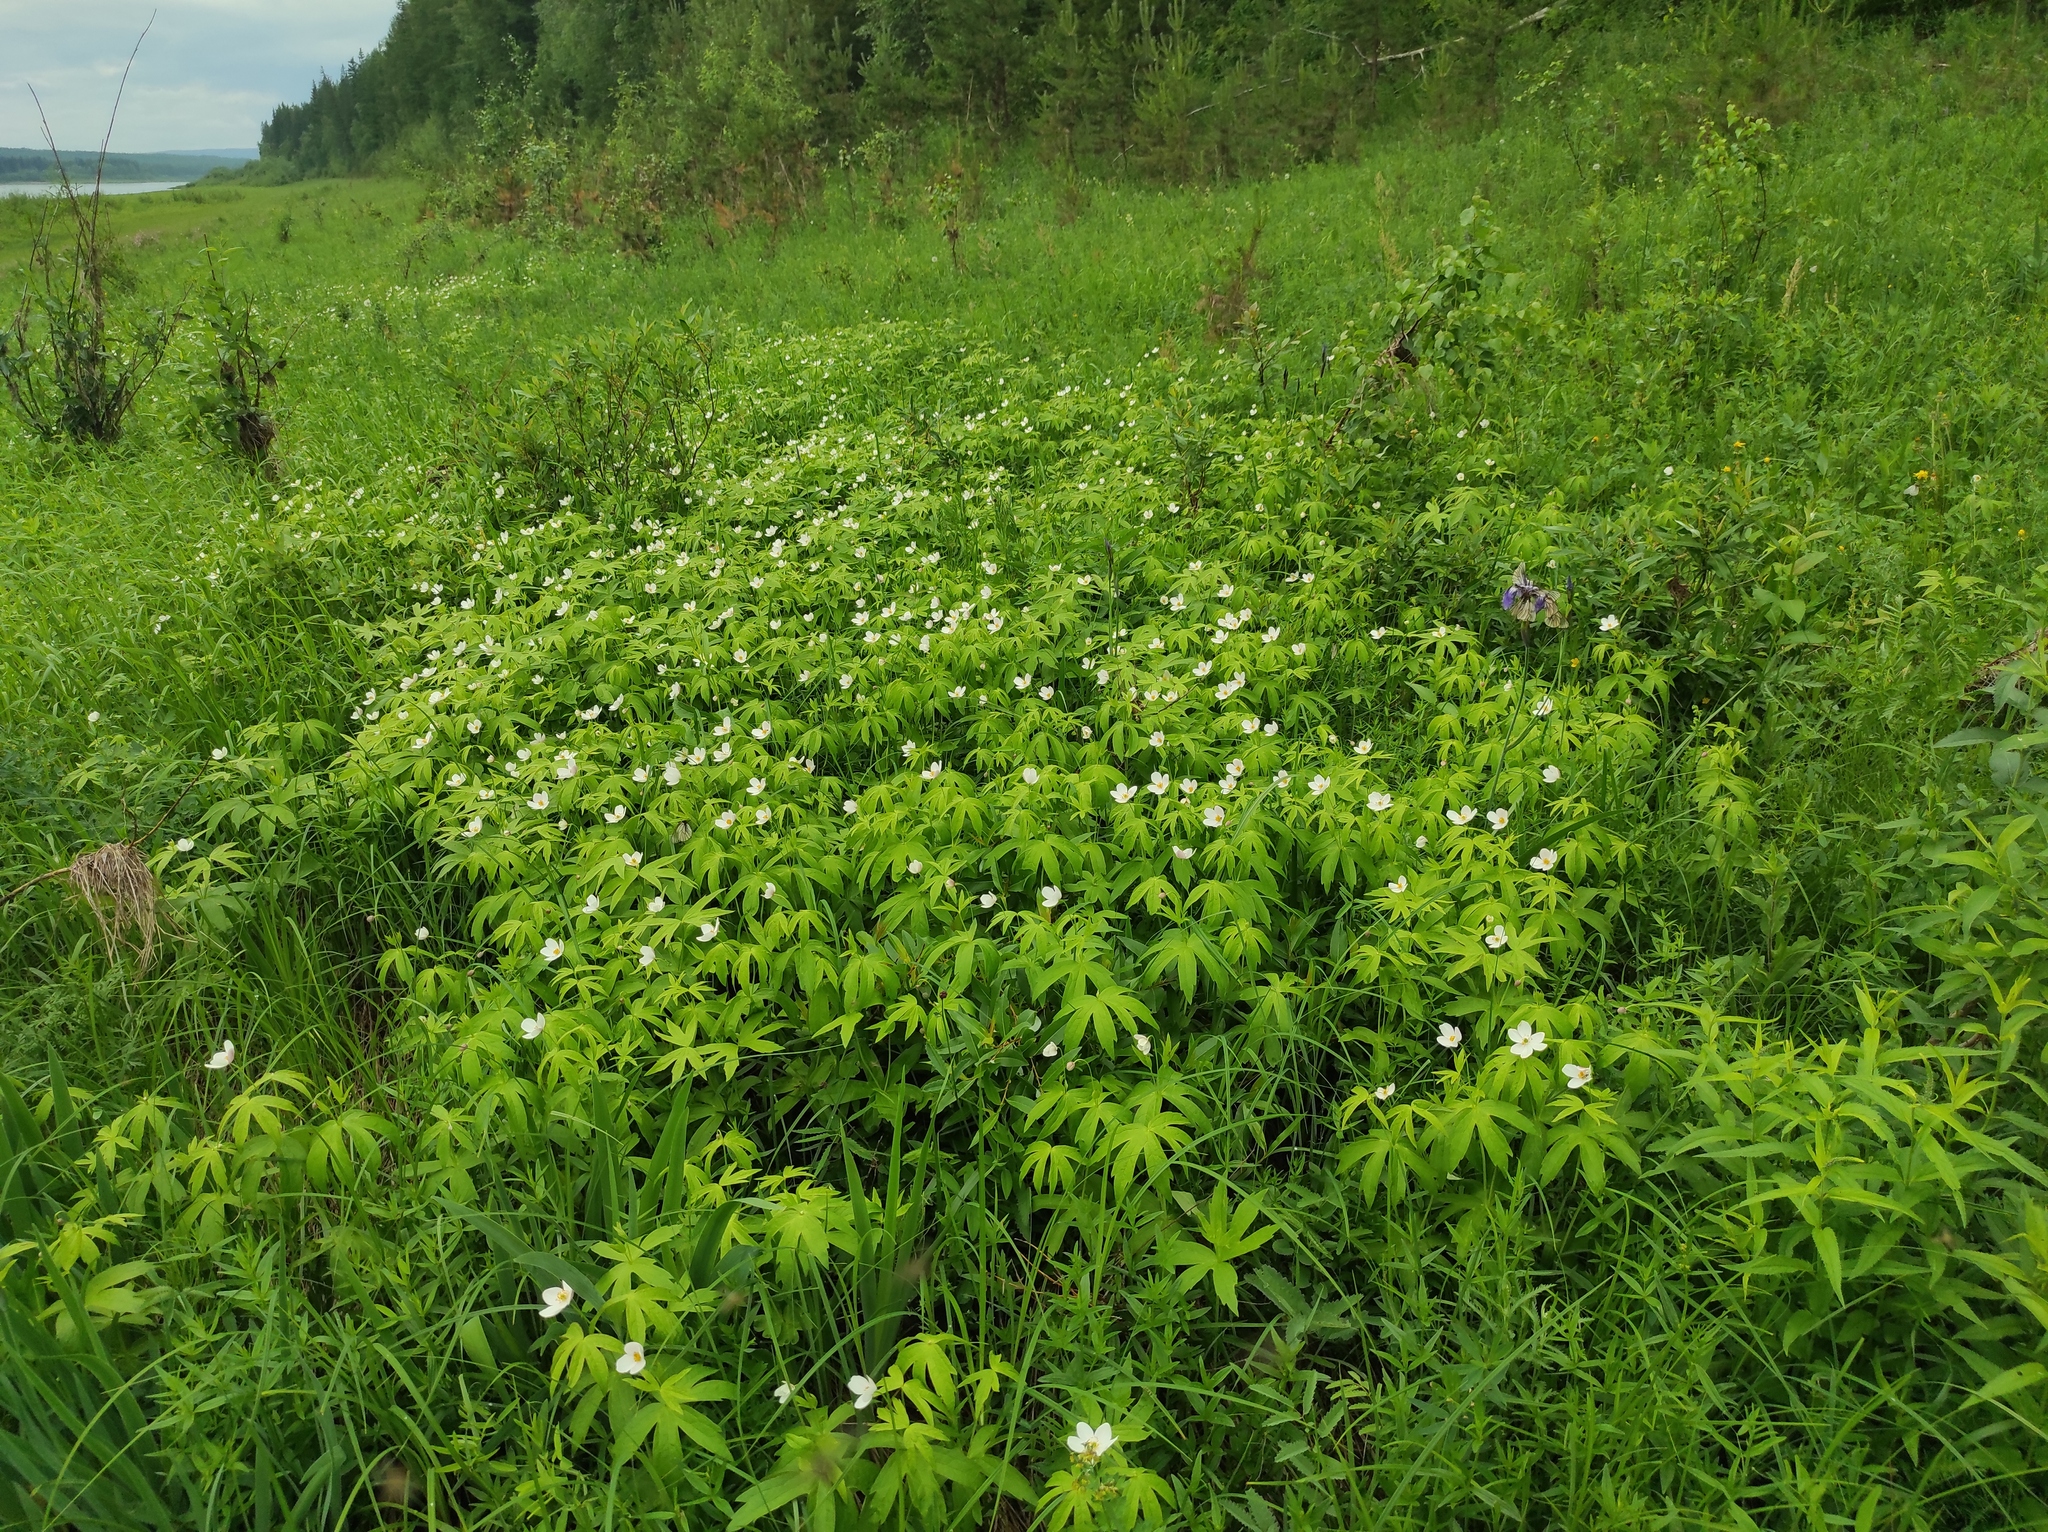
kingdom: Animalia
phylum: Arthropoda
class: Insecta
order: Lepidoptera
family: Pieridae
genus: Aporia
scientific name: Aporia crataegi
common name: Black-veined white
